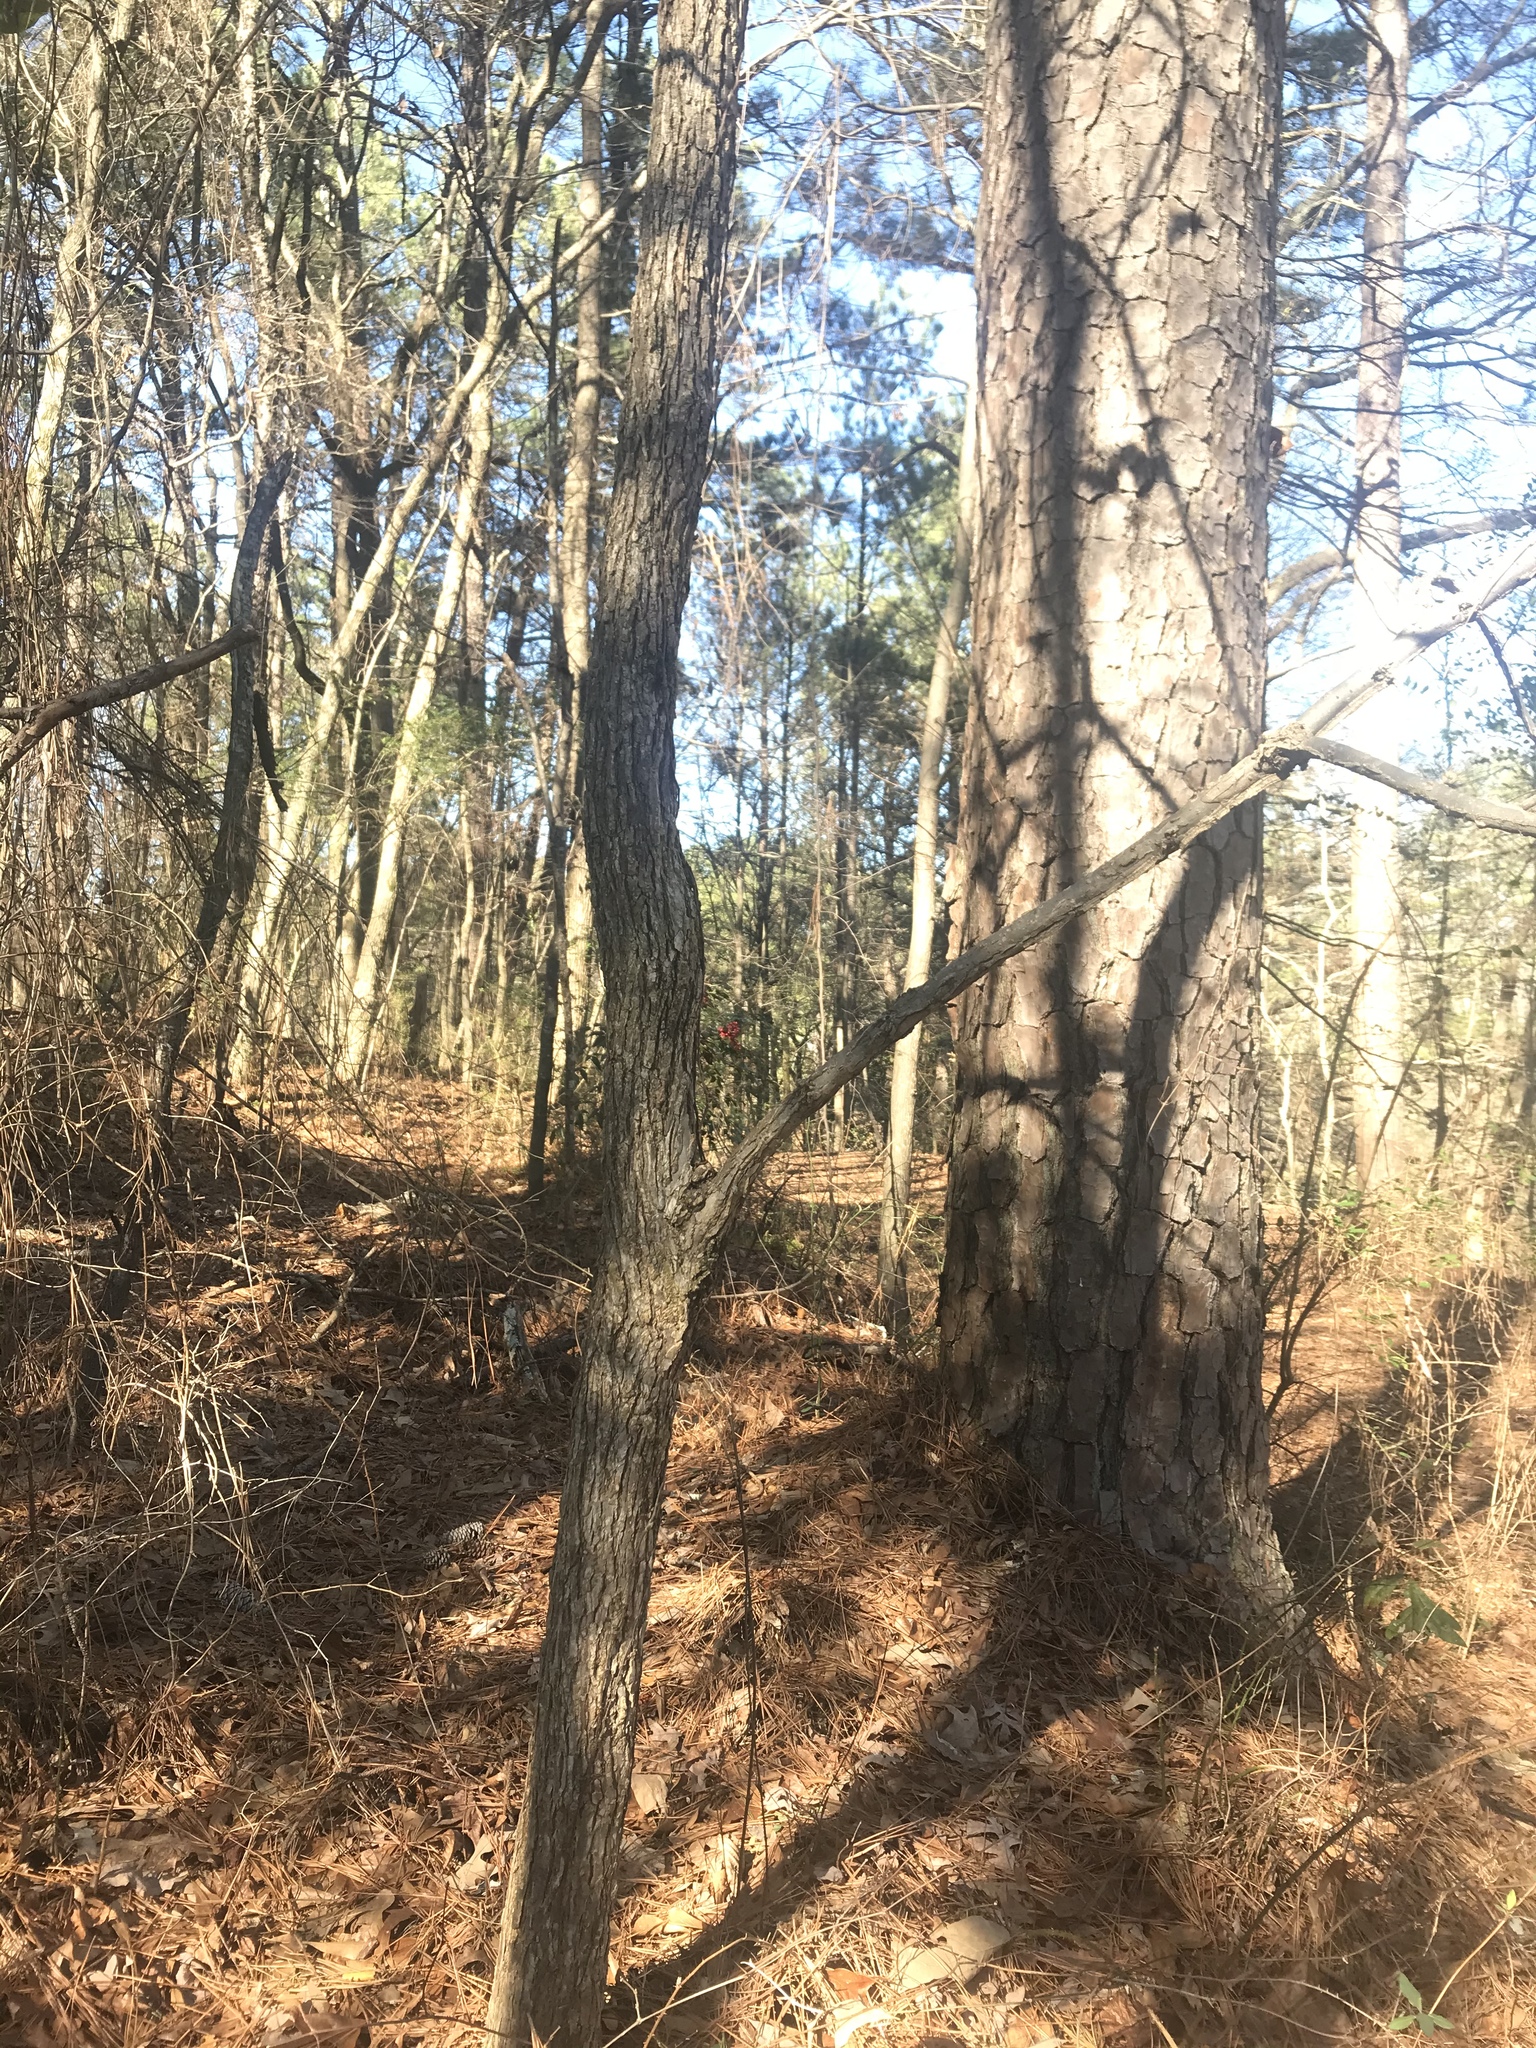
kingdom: Plantae
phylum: Tracheophyta
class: Magnoliopsida
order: Rosales
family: Ulmaceae
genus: Ulmus
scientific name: Ulmus alata
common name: Winged elm
